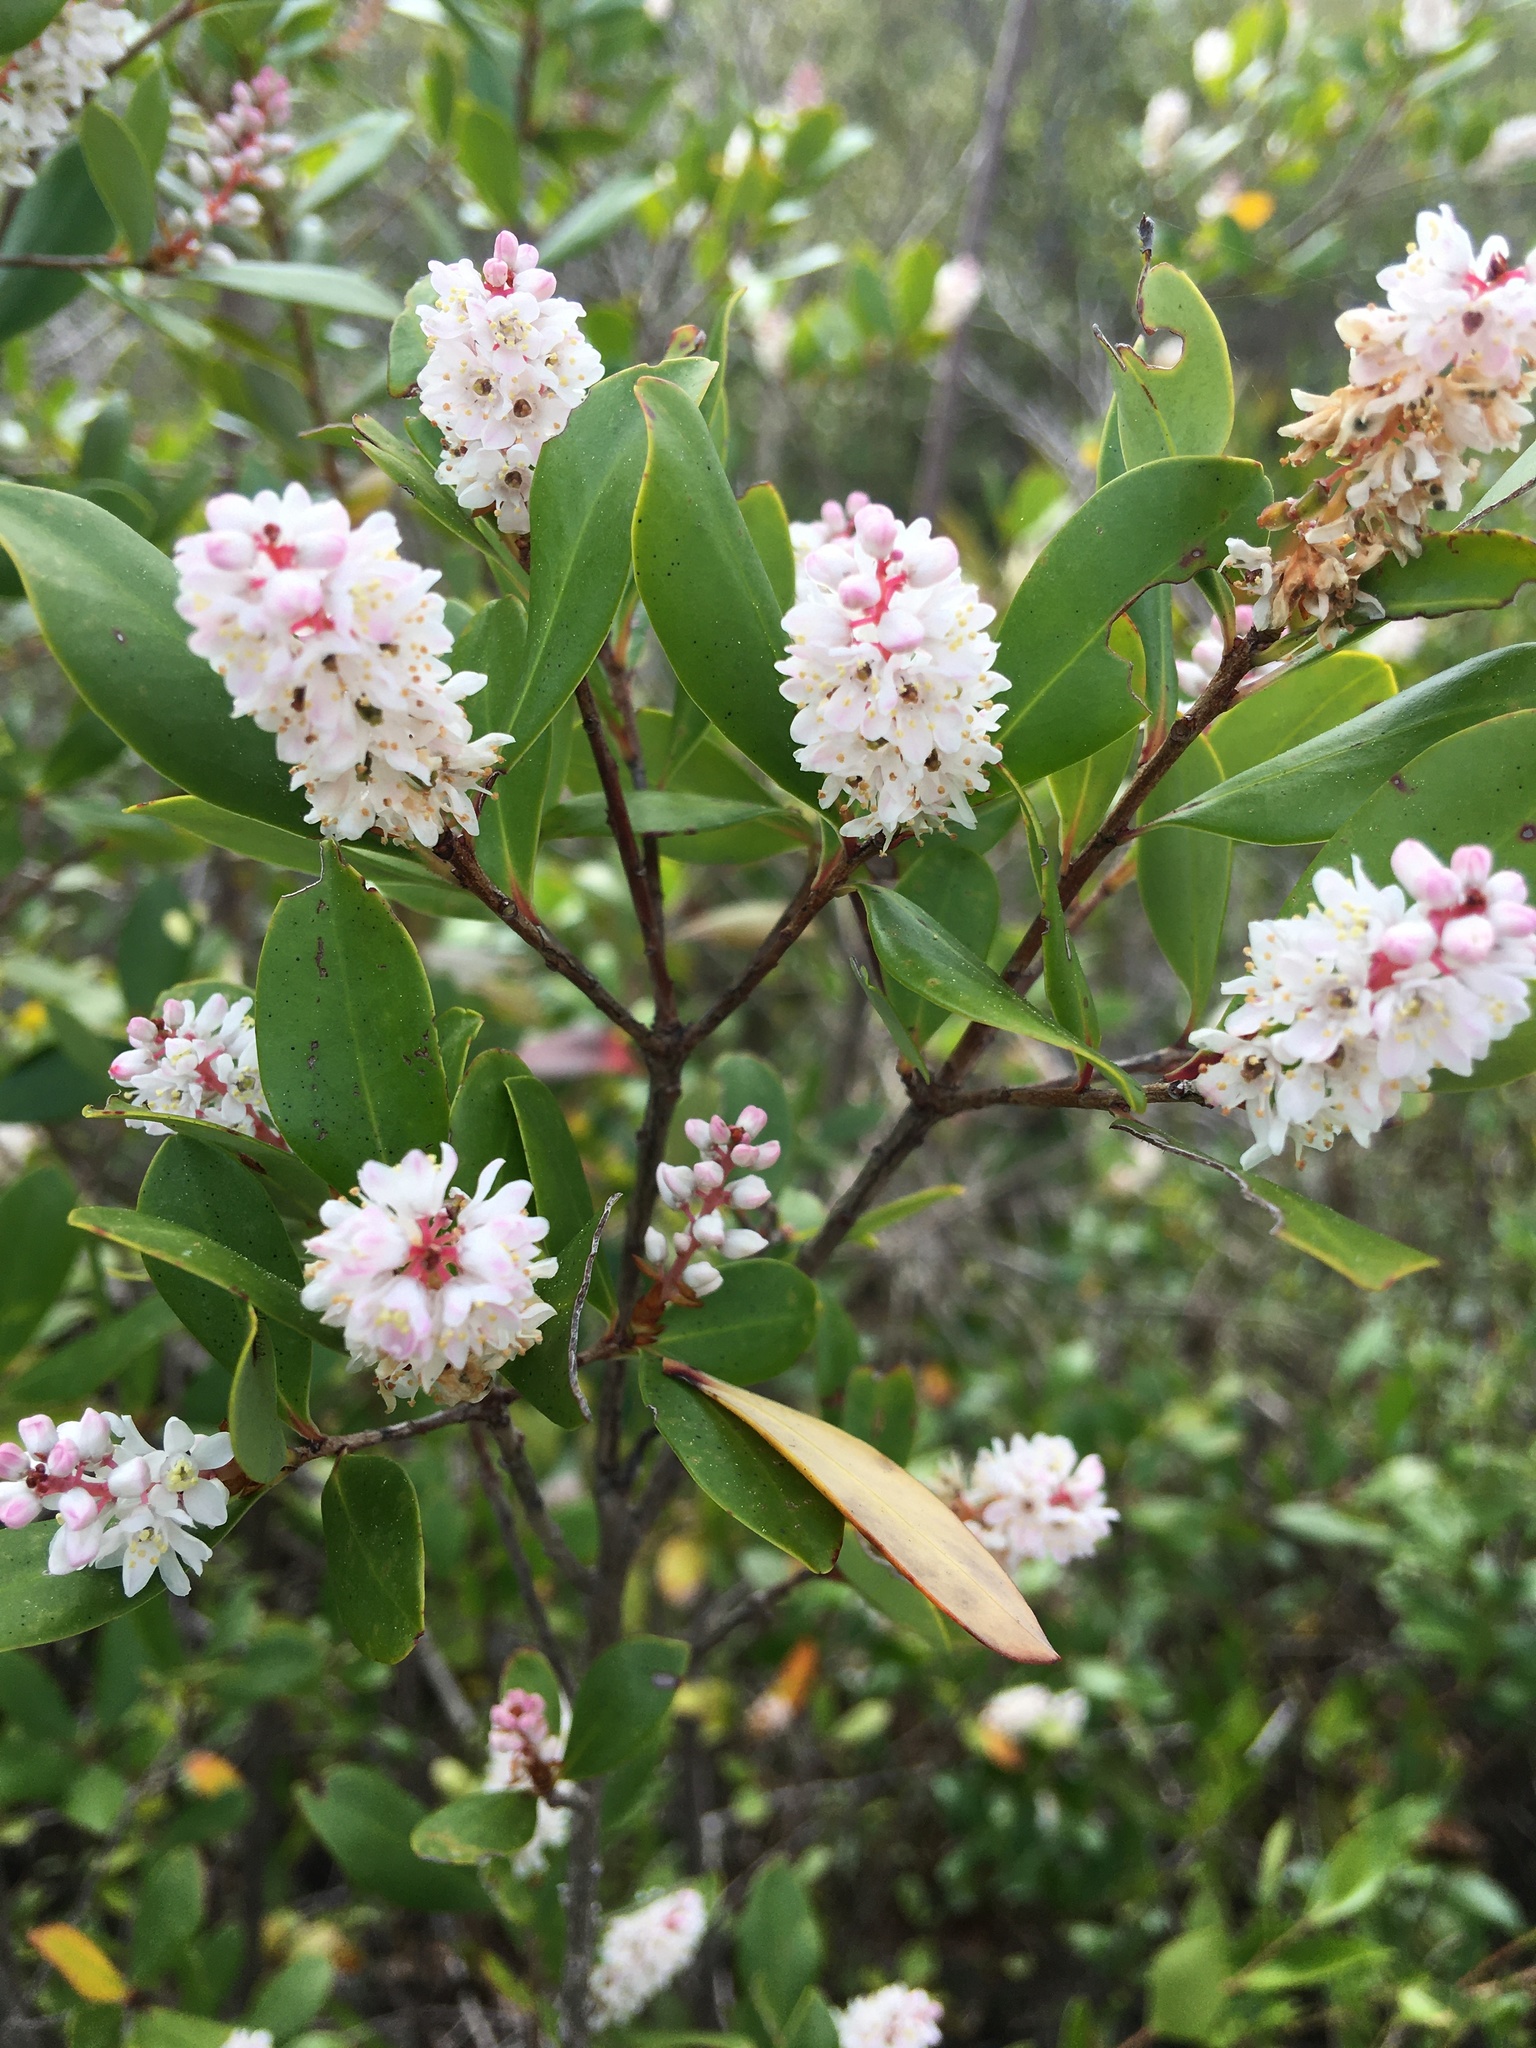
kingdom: Plantae
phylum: Tracheophyta
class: Magnoliopsida
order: Ericales
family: Cyrillaceae
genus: Cliftonia
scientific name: Cliftonia monophylla
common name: Titi
